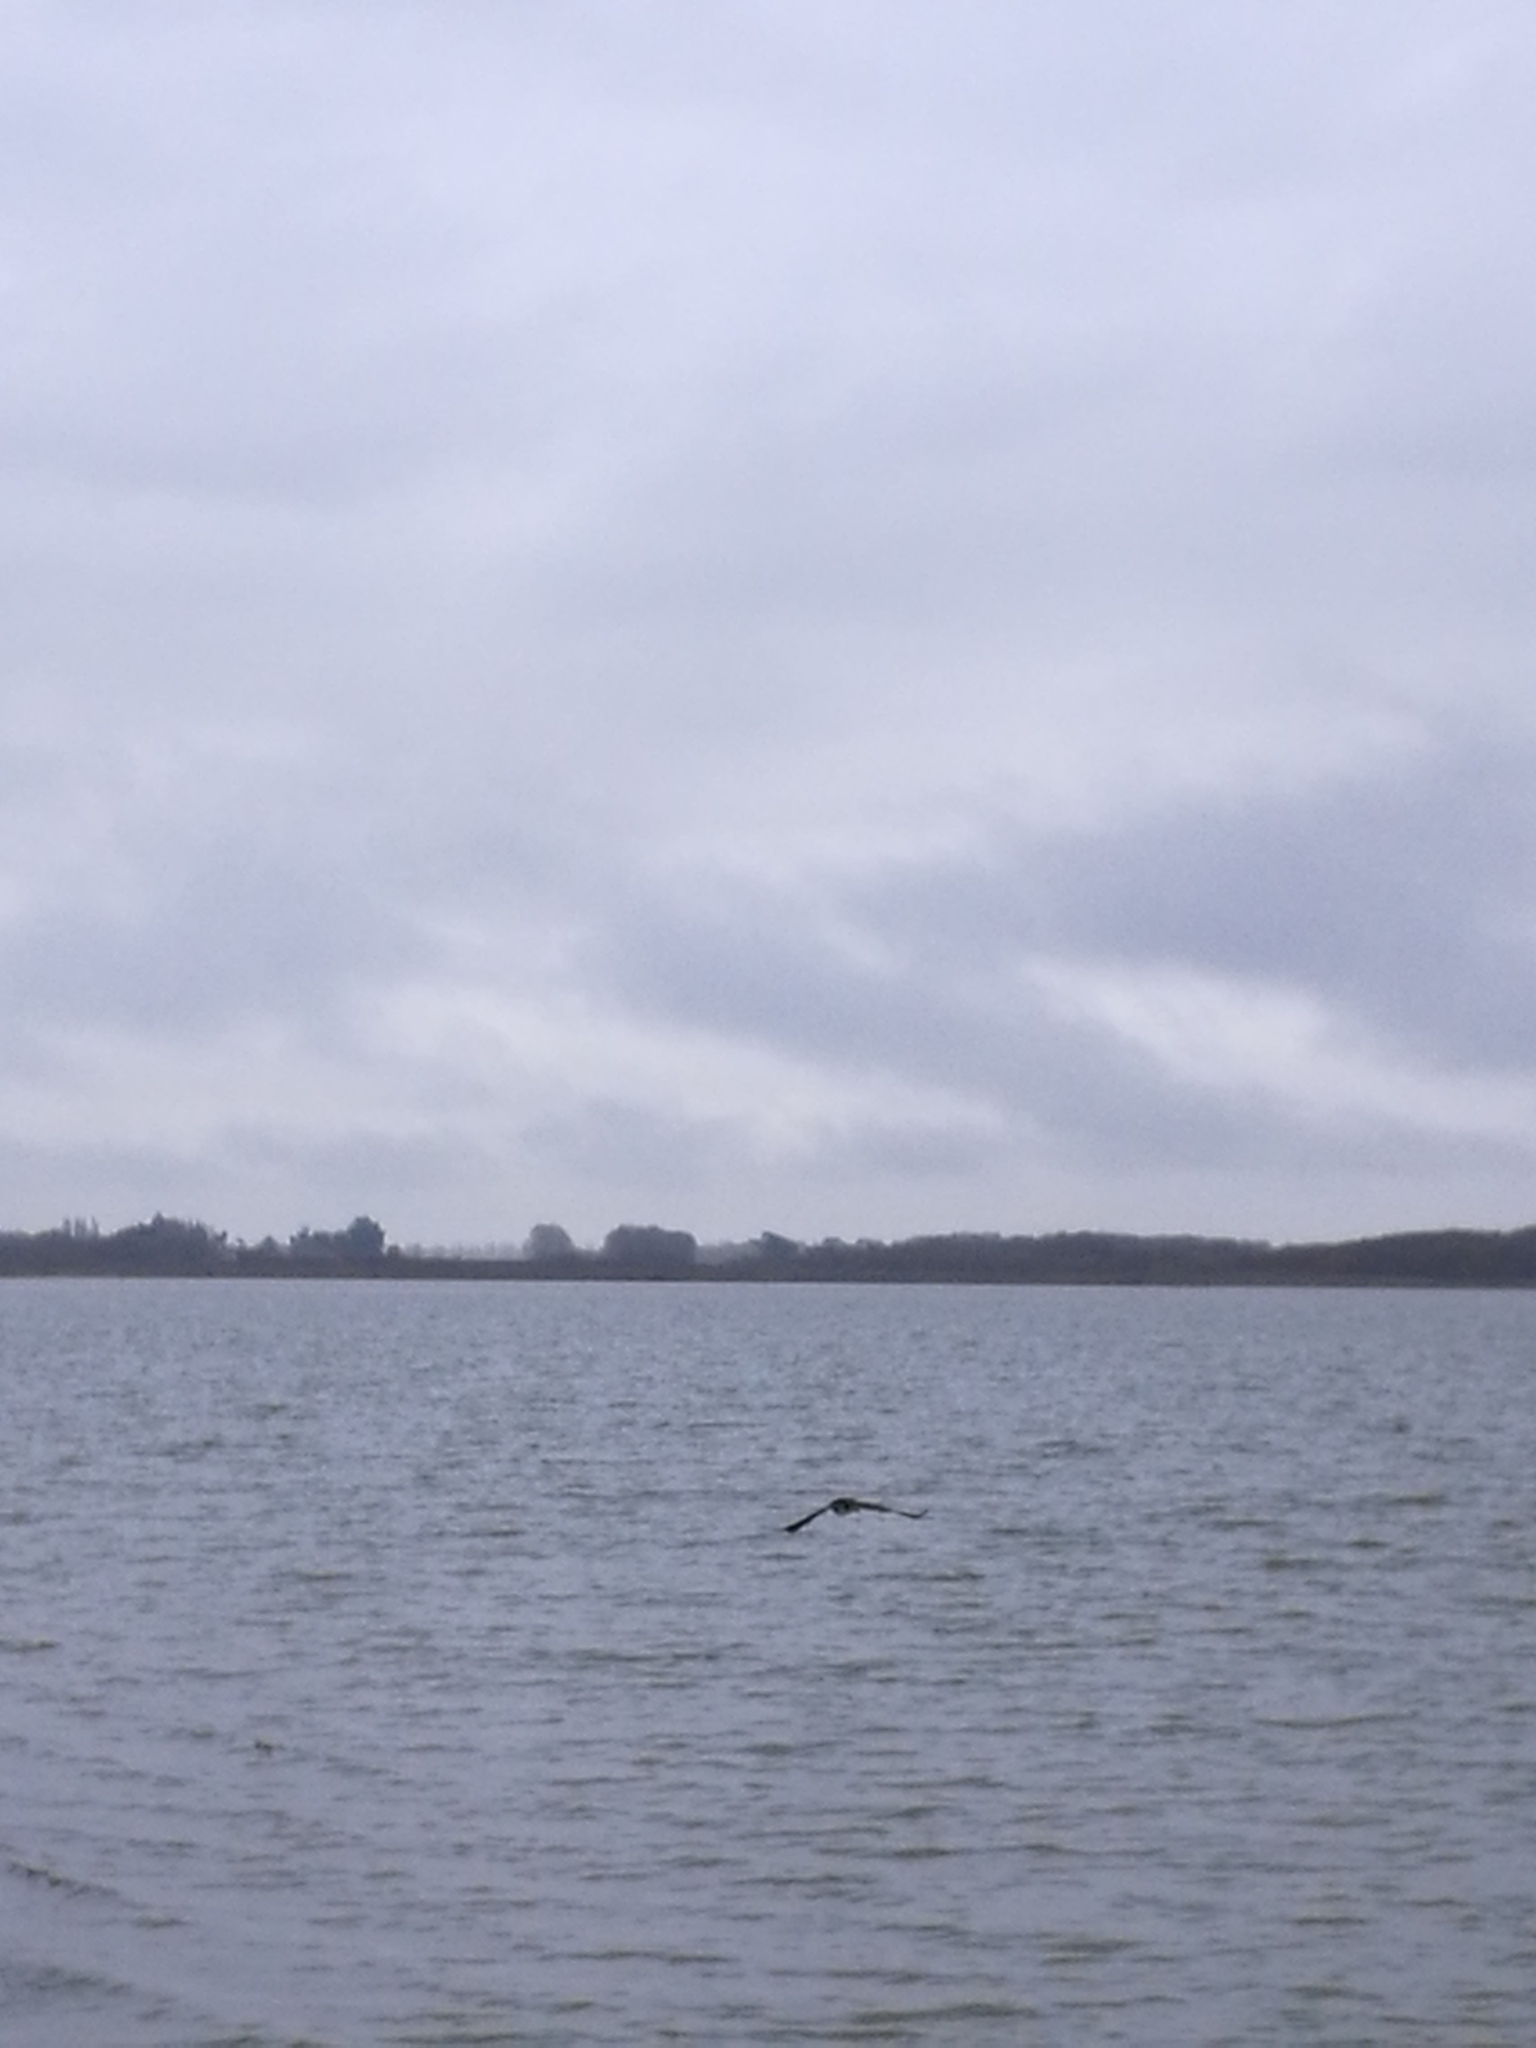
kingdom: Animalia
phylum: Chordata
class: Aves
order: Suliformes
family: Phalacrocoracidae
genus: Microcarbo
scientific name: Microcarbo melanoleucos
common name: Little pied cormorant
